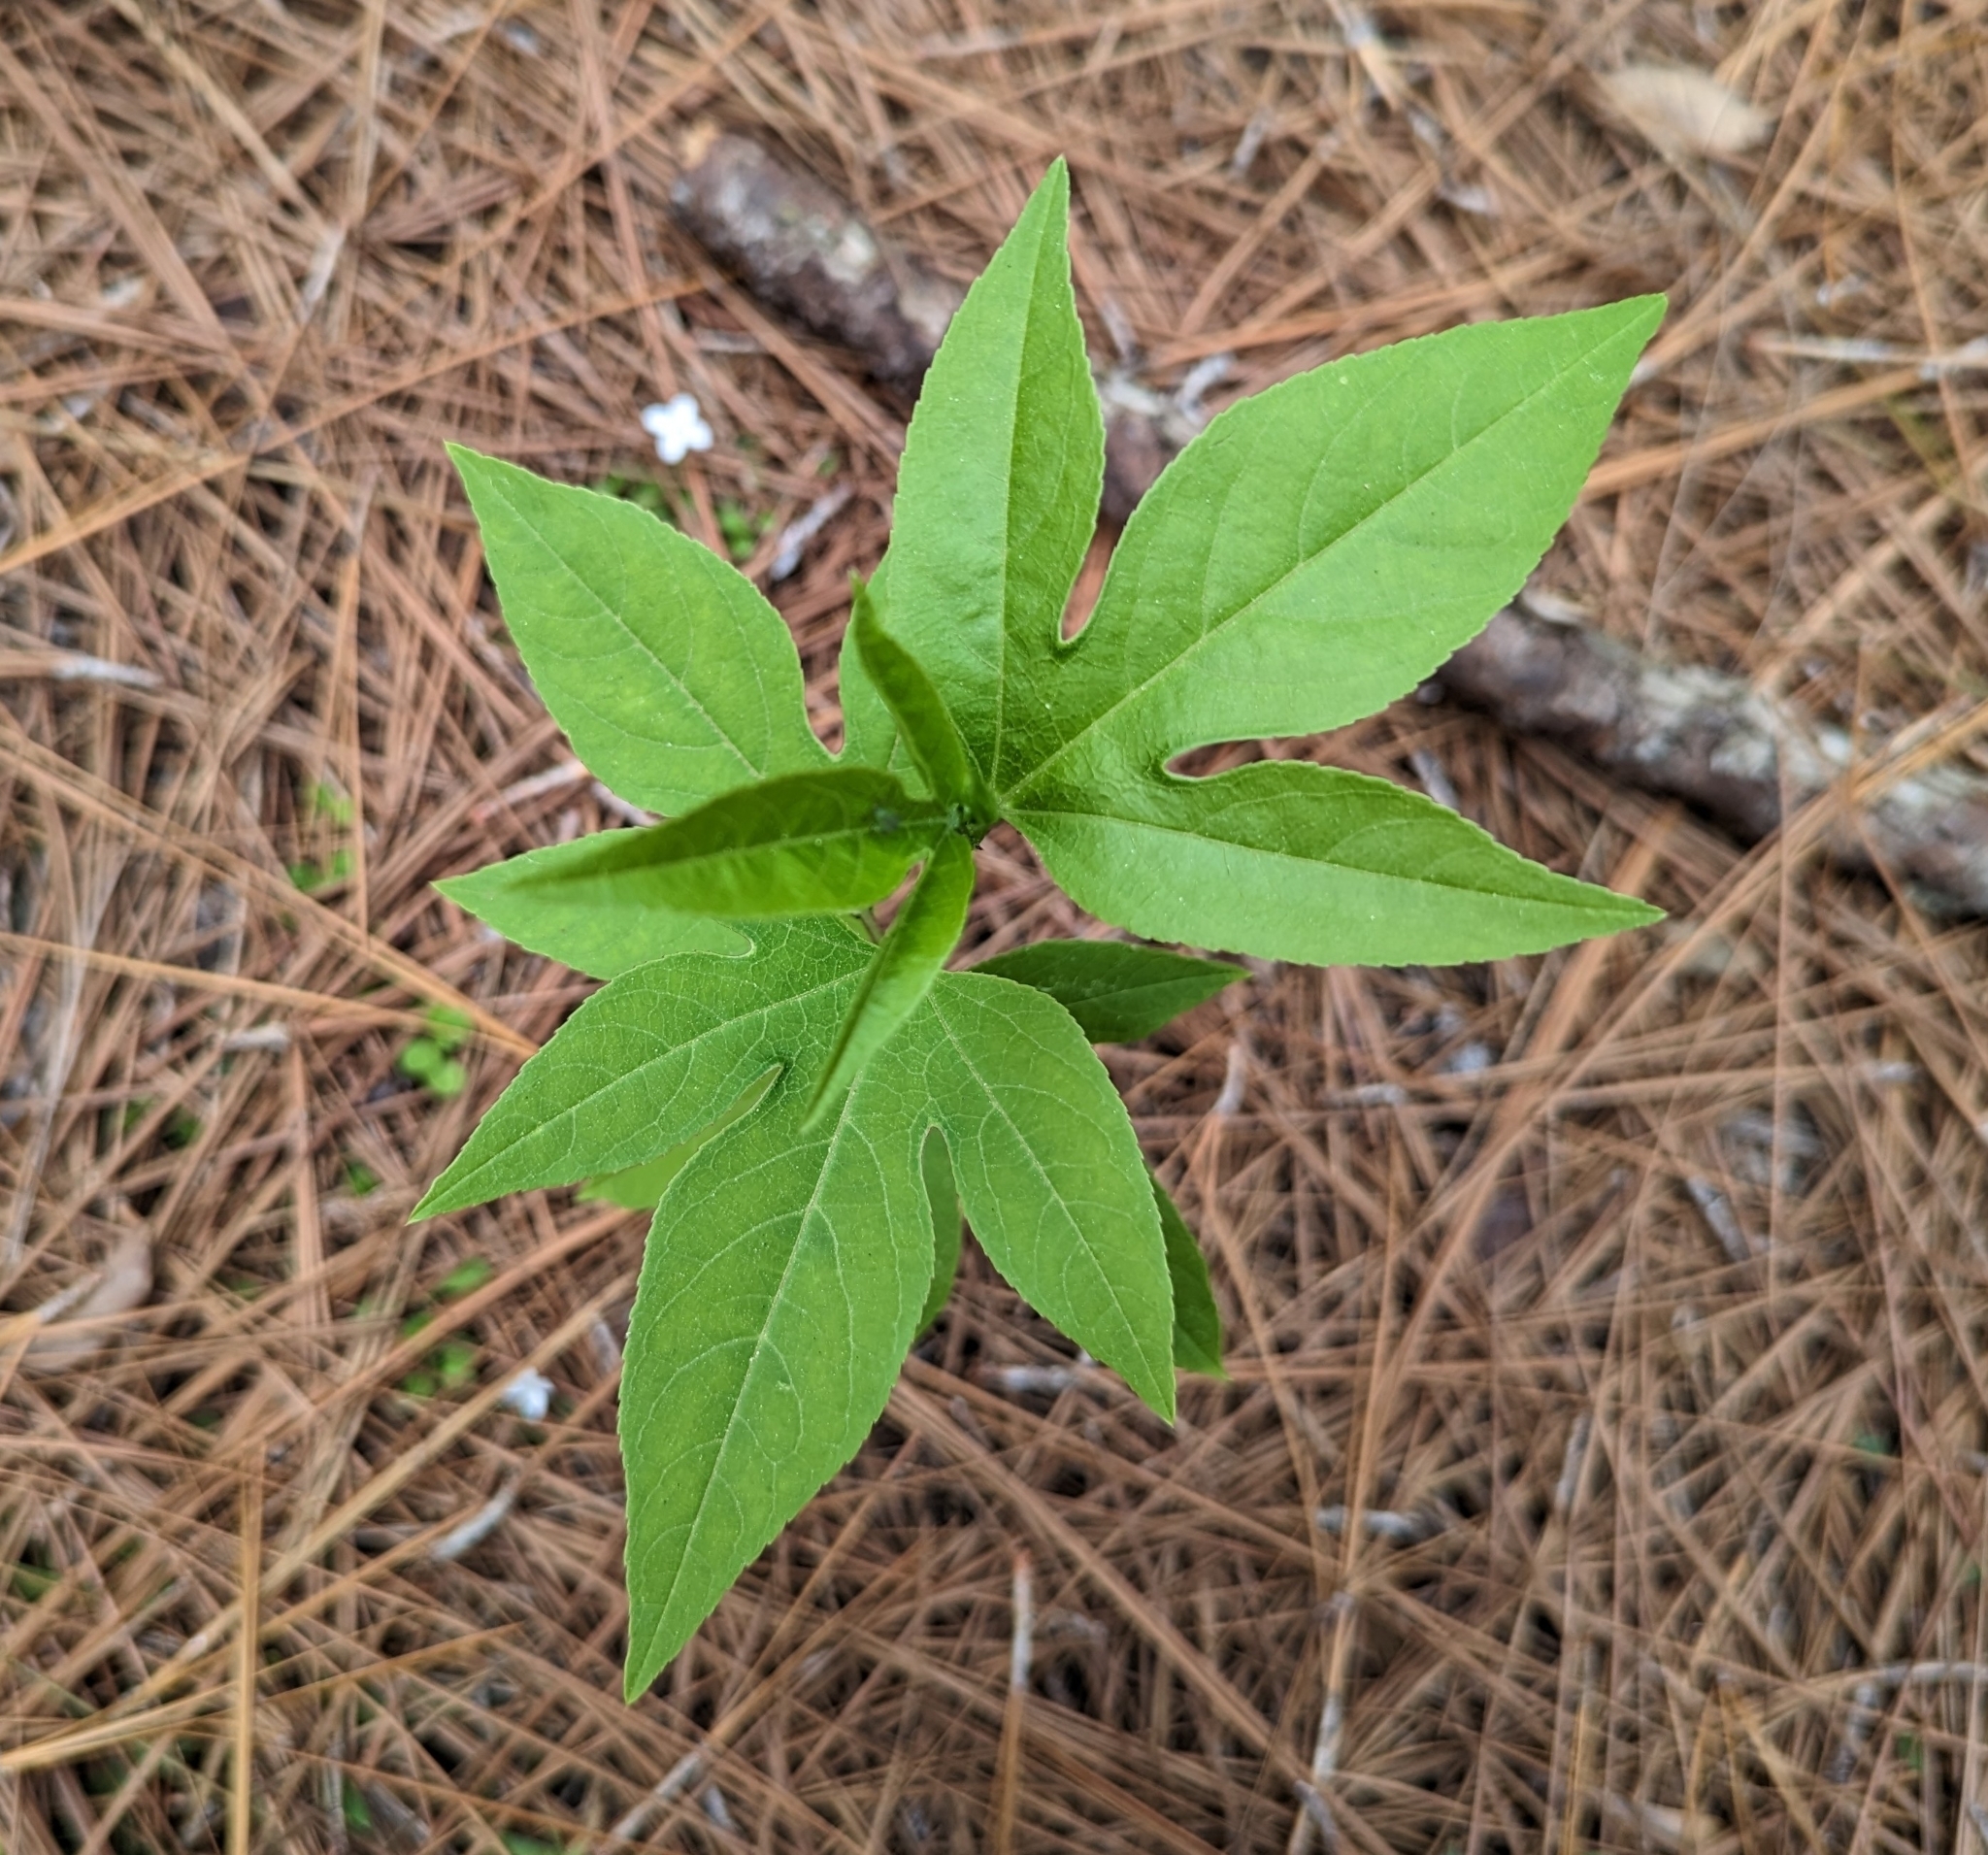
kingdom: Plantae
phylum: Tracheophyta
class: Magnoliopsida
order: Malpighiales
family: Passifloraceae
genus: Passiflora
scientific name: Passiflora incarnata
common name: Apricot-vine
